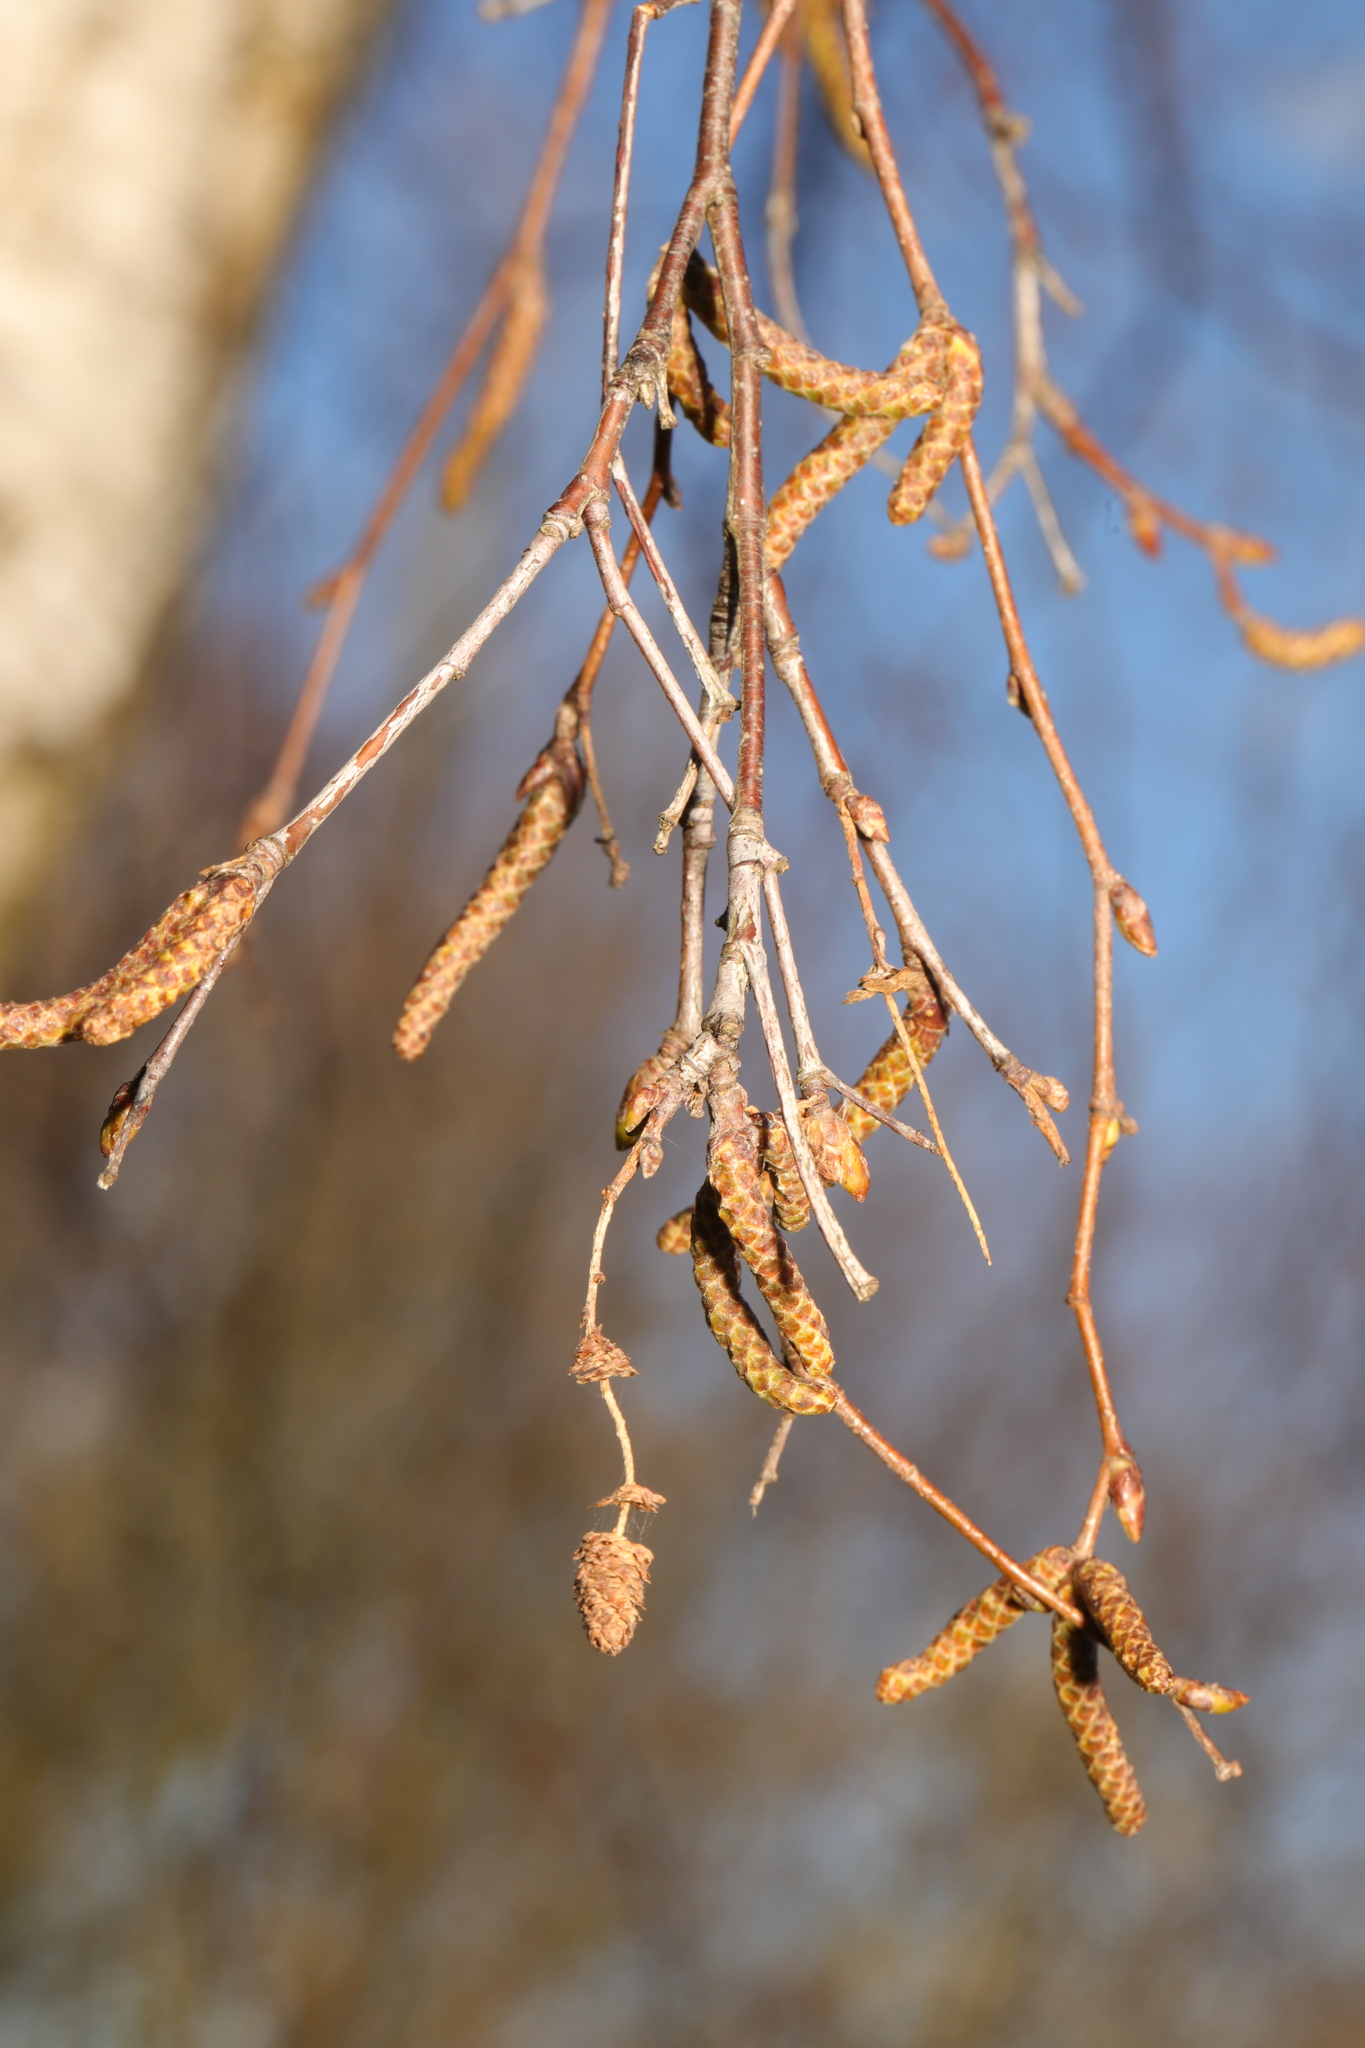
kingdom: Plantae
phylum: Tracheophyta
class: Magnoliopsida
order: Fagales
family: Betulaceae
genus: Betula
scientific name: Betula pendula
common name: Silver birch
